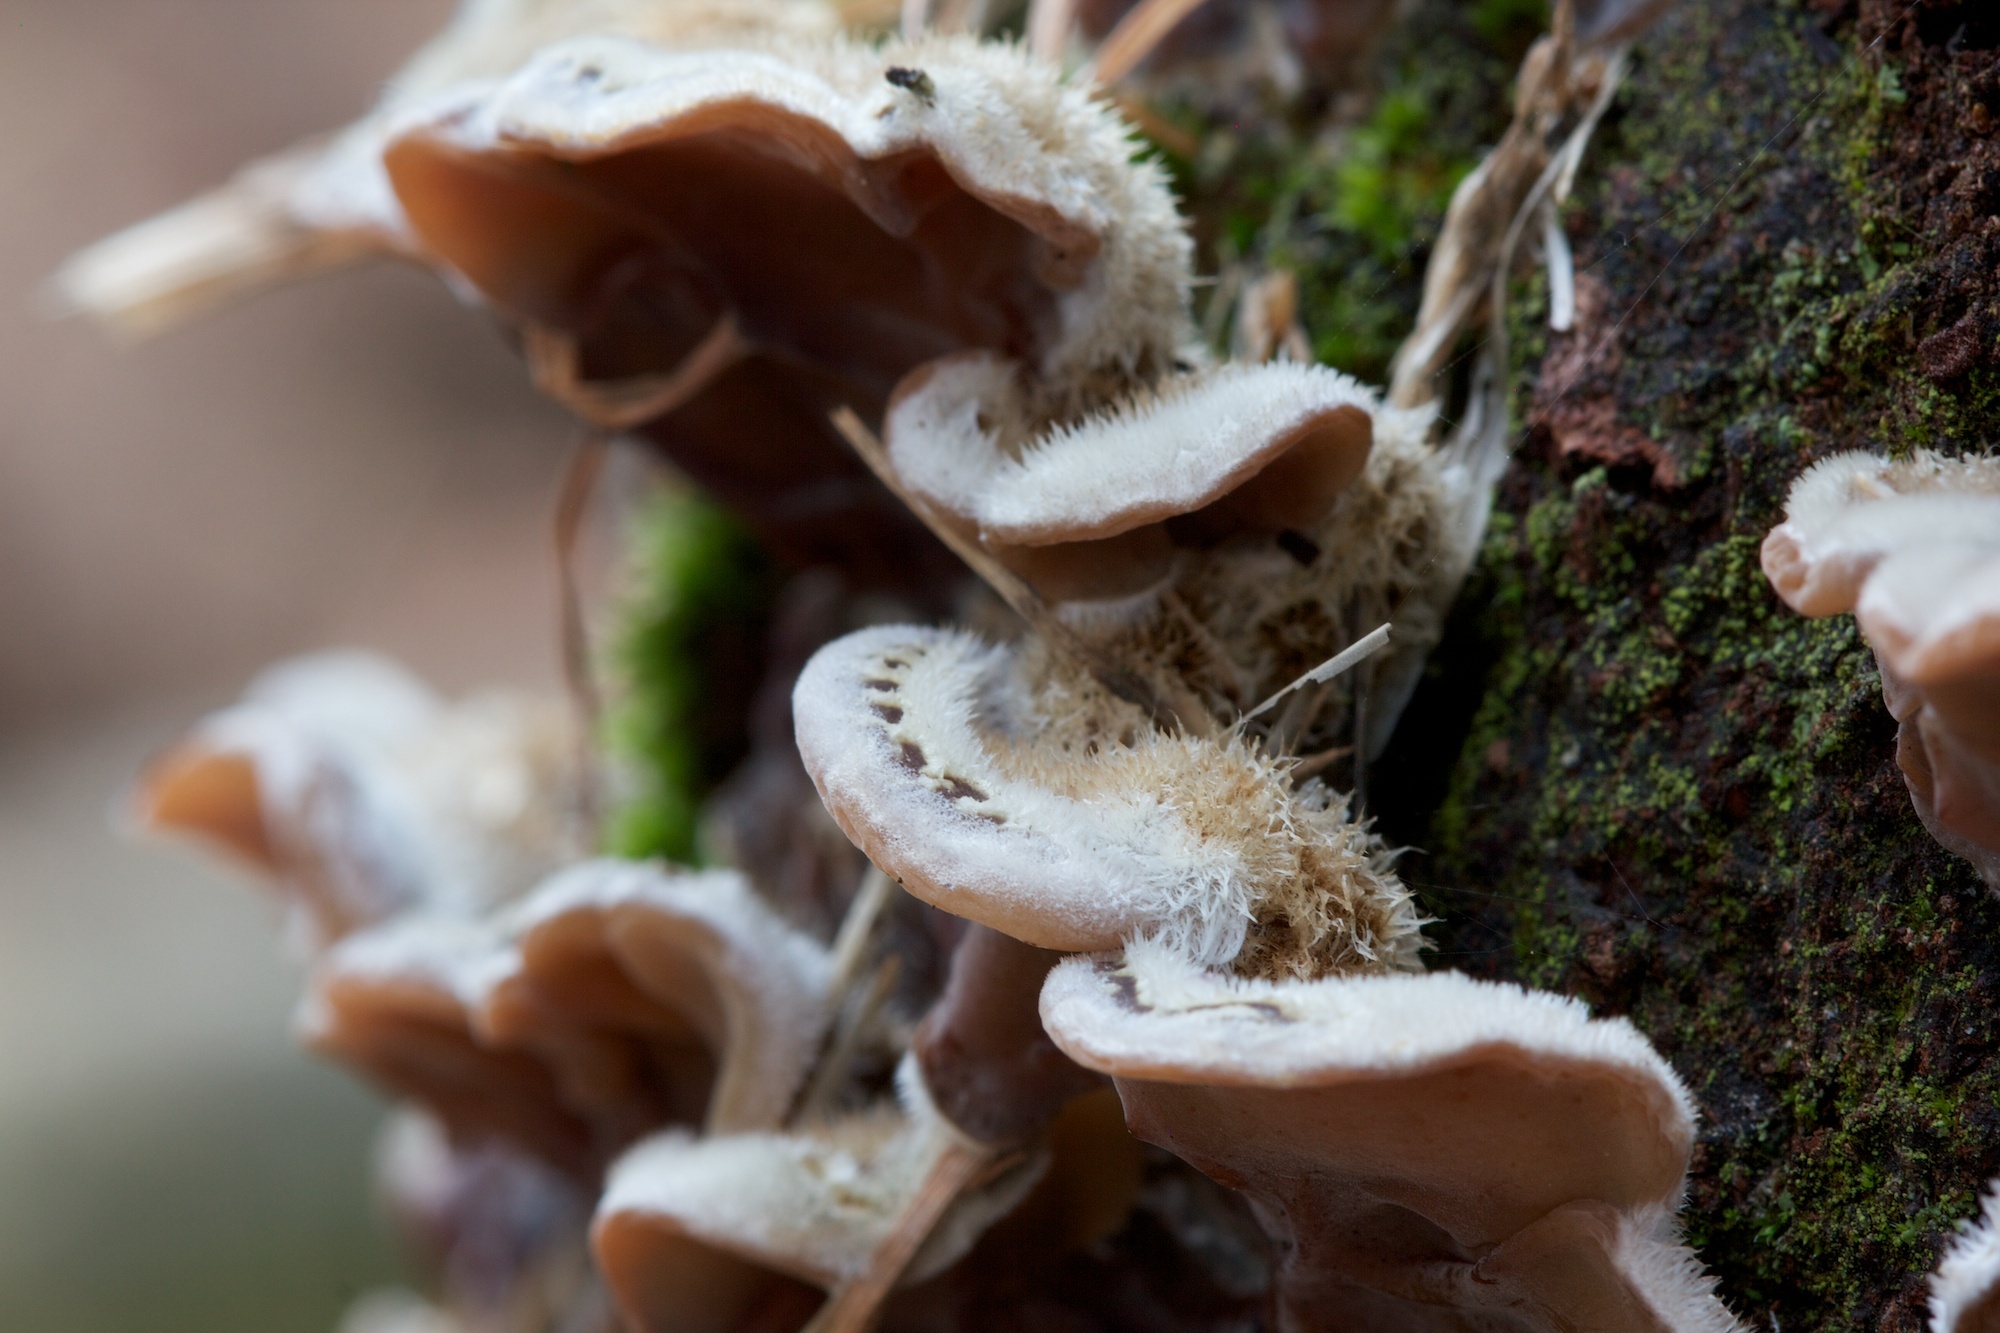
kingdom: Fungi
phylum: Basidiomycota
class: Agaricomycetes
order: Auriculariales
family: Auriculariaceae
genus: Auricularia
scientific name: Auricularia mesenterica
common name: Tripe fungus
